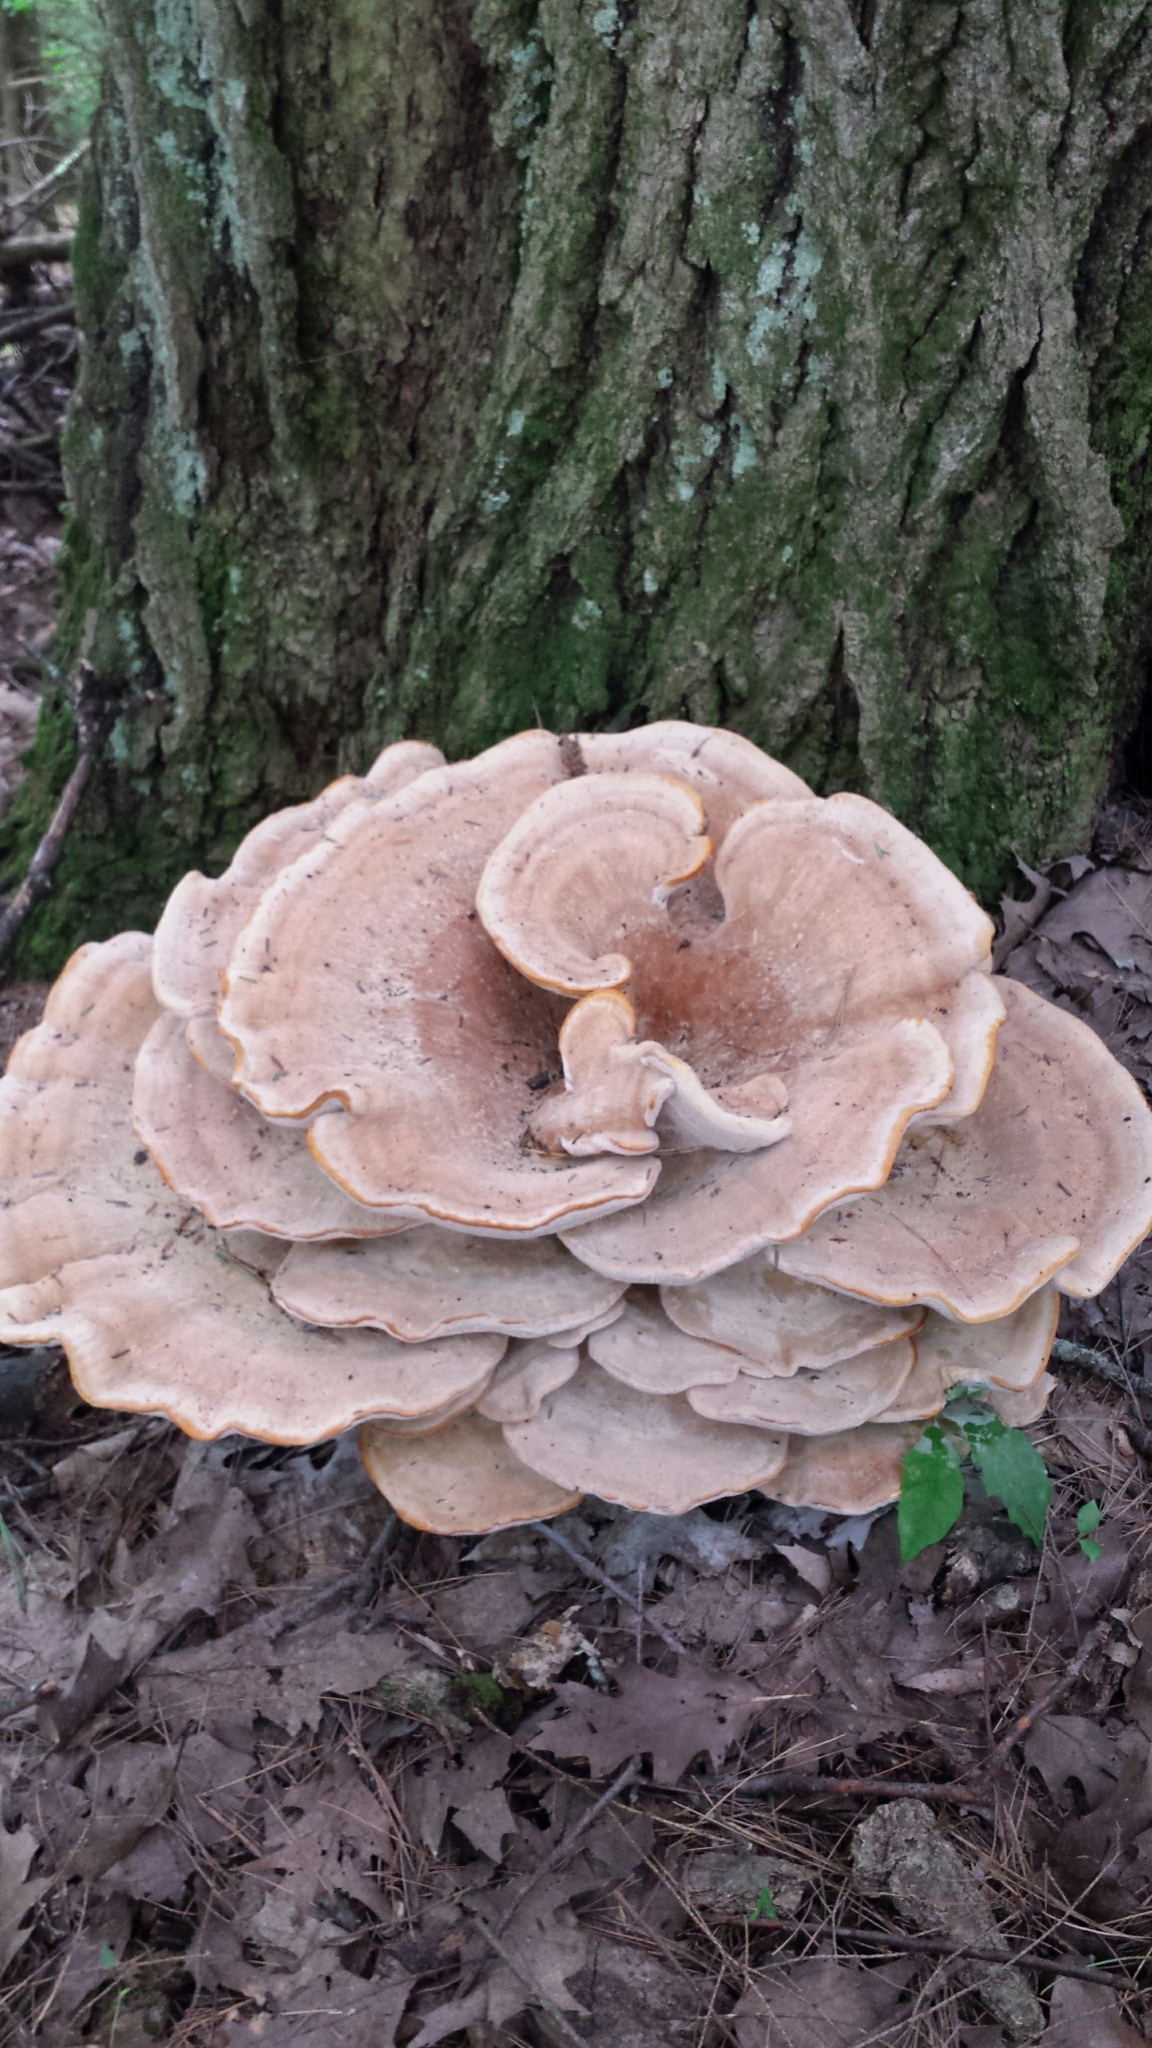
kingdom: Fungi
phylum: Basidiomycota
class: Agaricomycetes
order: Russulales
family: Bondarzewiaceae
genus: Bondarzewia
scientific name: Bondarzewia berkeleyi
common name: Berkeley's polypore
